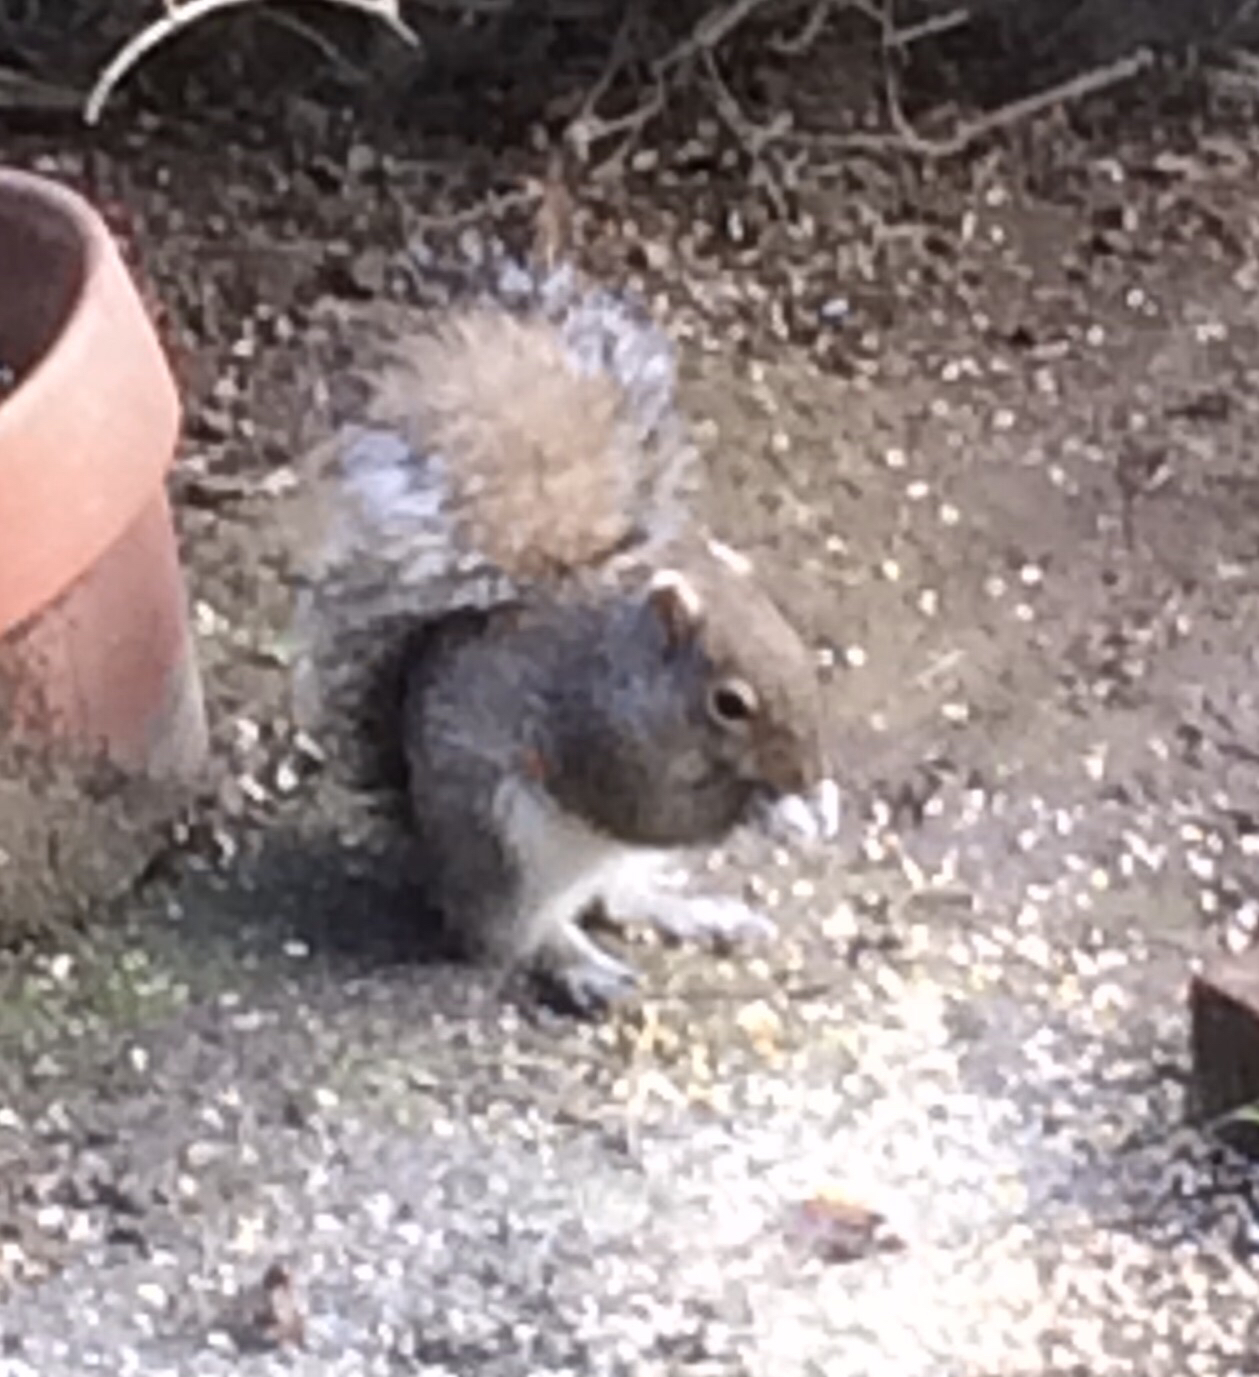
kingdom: Animalia
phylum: Chordata
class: Mammalia
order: Rodentia
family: Sciuridae
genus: Sciurus
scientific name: Sciurus carolinensis
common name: Eastern gray squirrel
